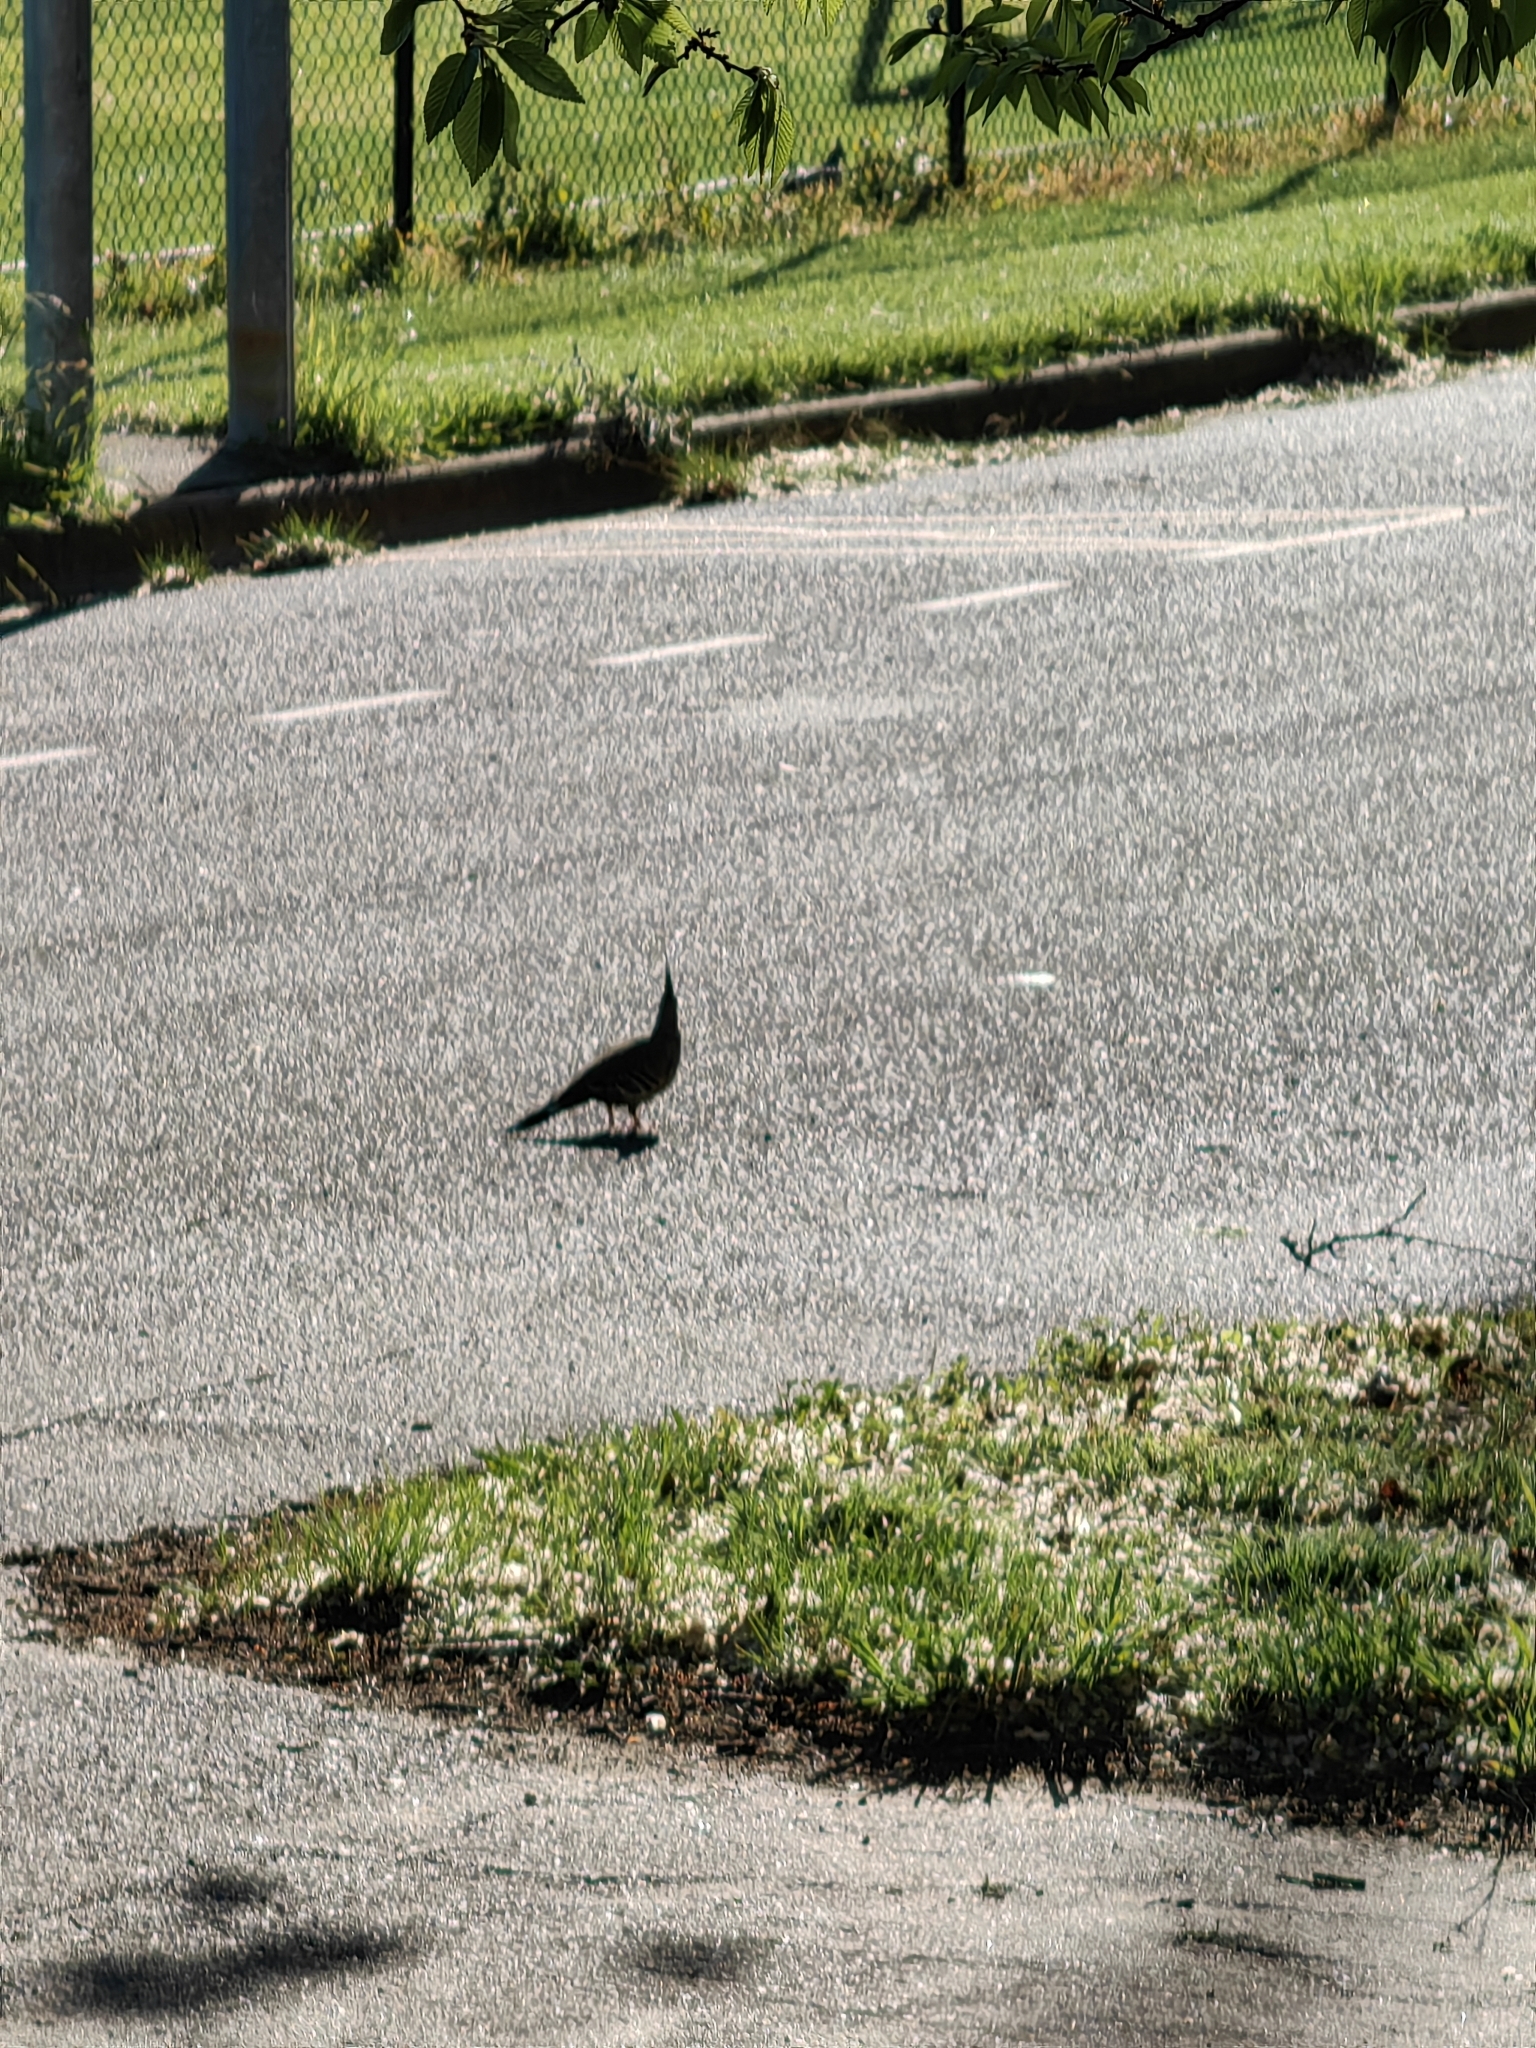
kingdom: Animalia
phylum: Chordata
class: Aves
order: Columbiformes
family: Columbidae
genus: Ocyphaps
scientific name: Ocyphaps lophotes
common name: Crested pigeon
